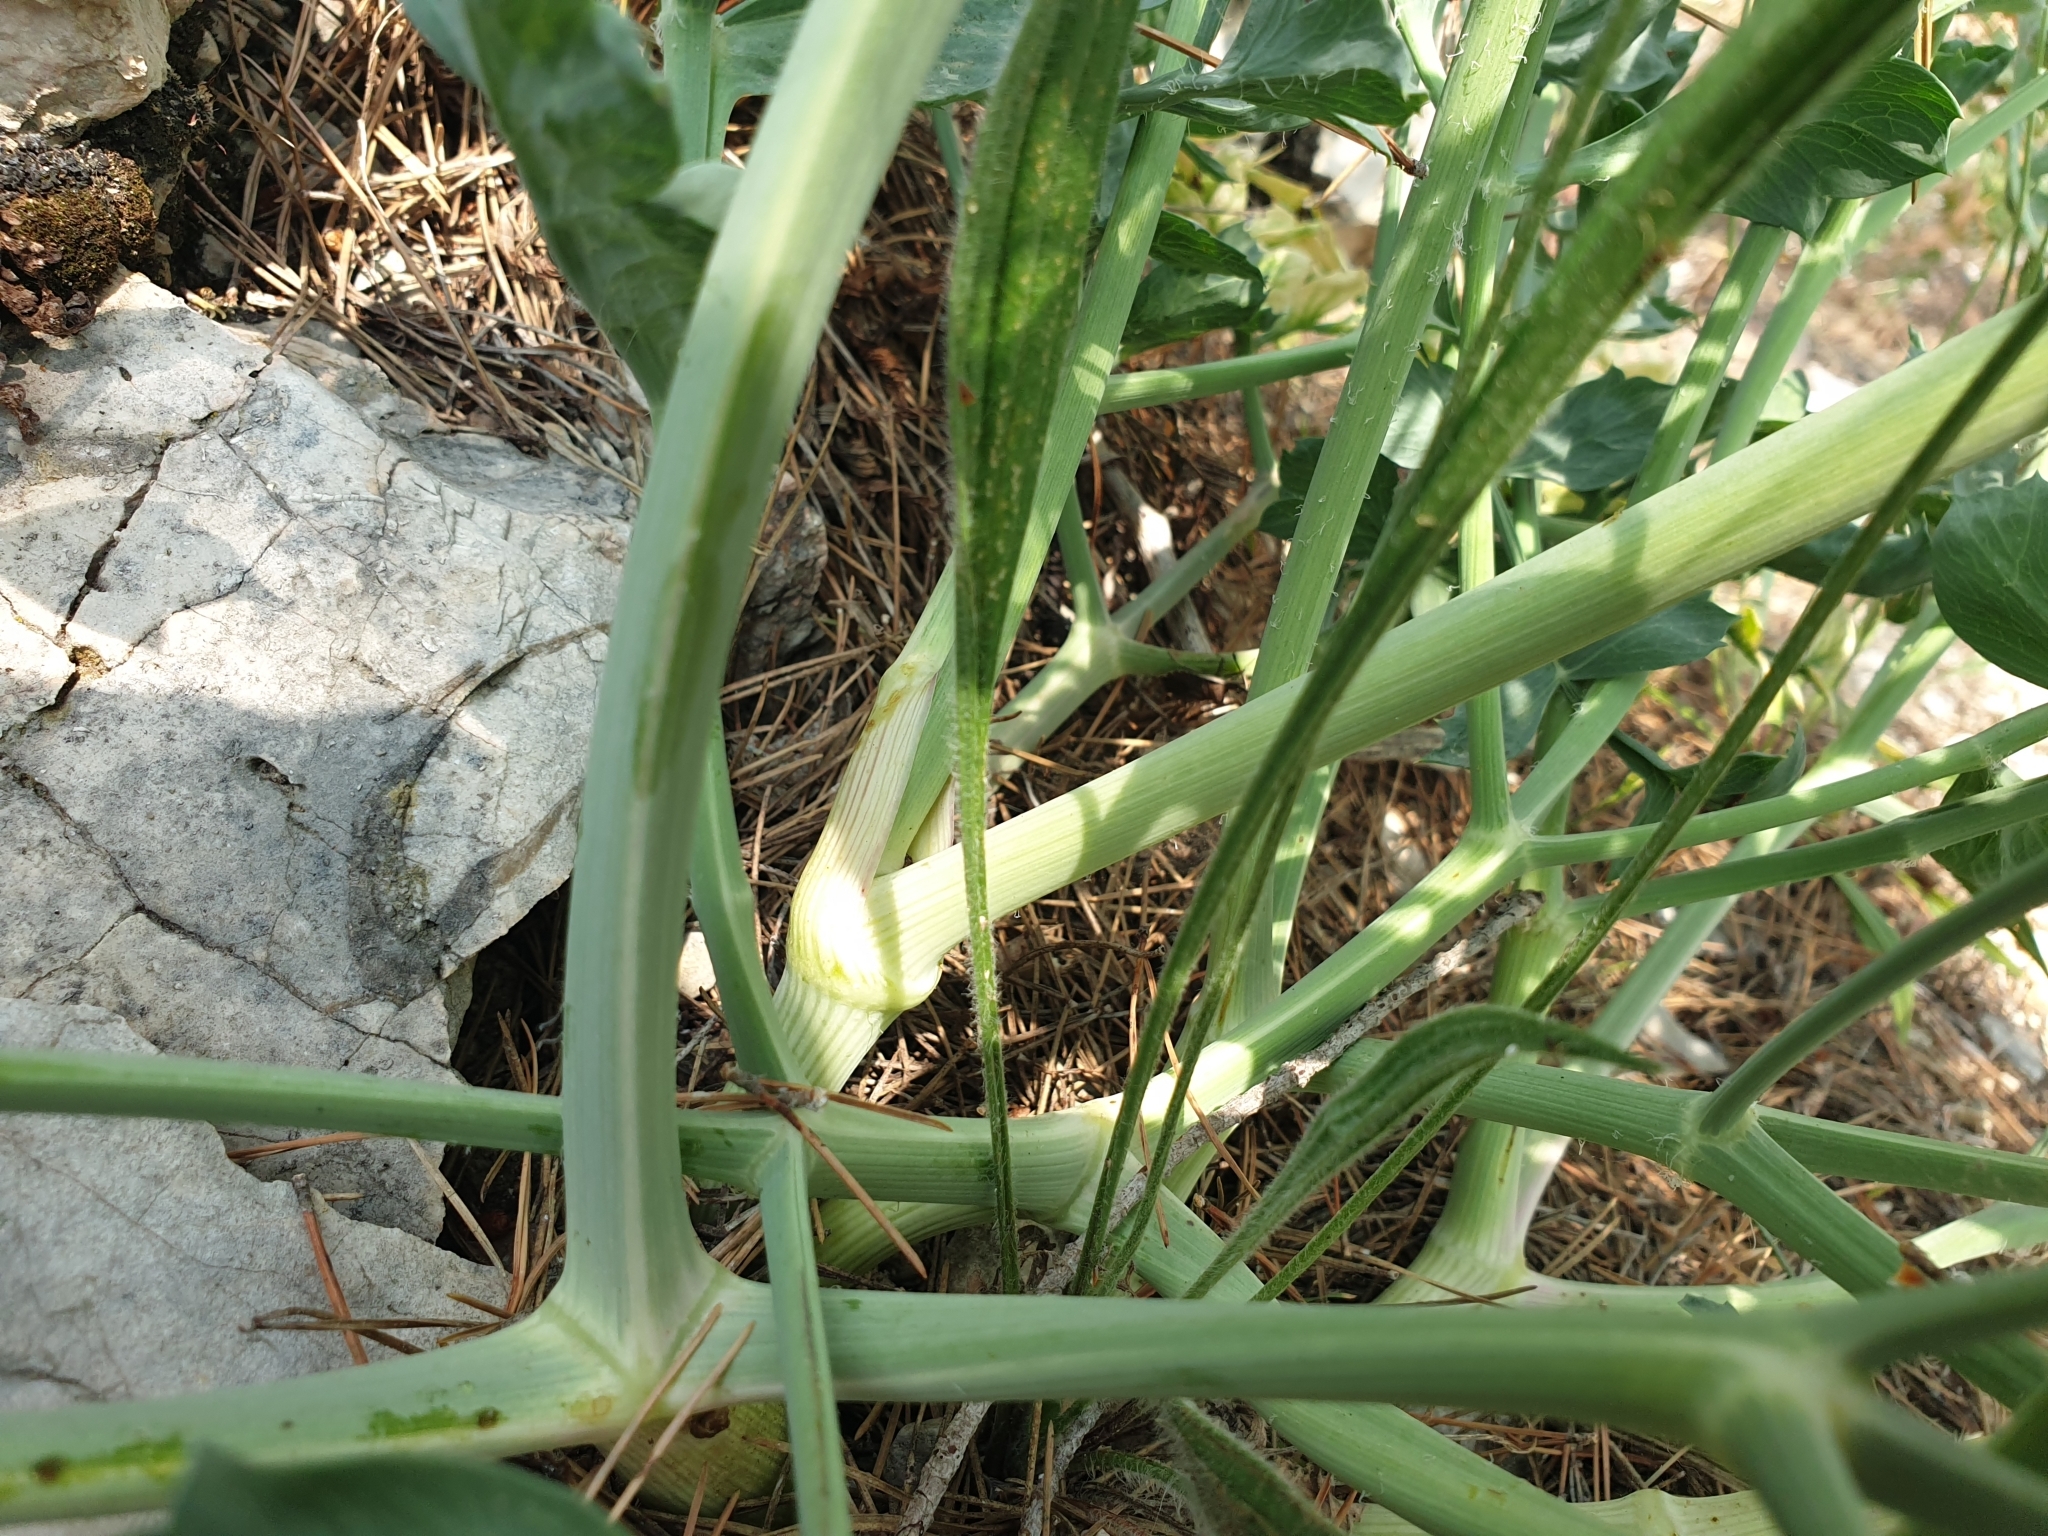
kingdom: Plantae
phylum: Tracheophyta
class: Magnoliopsida
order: Apiales
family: Apiaceae
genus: Laserpitium
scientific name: Laserpitium gallicum
